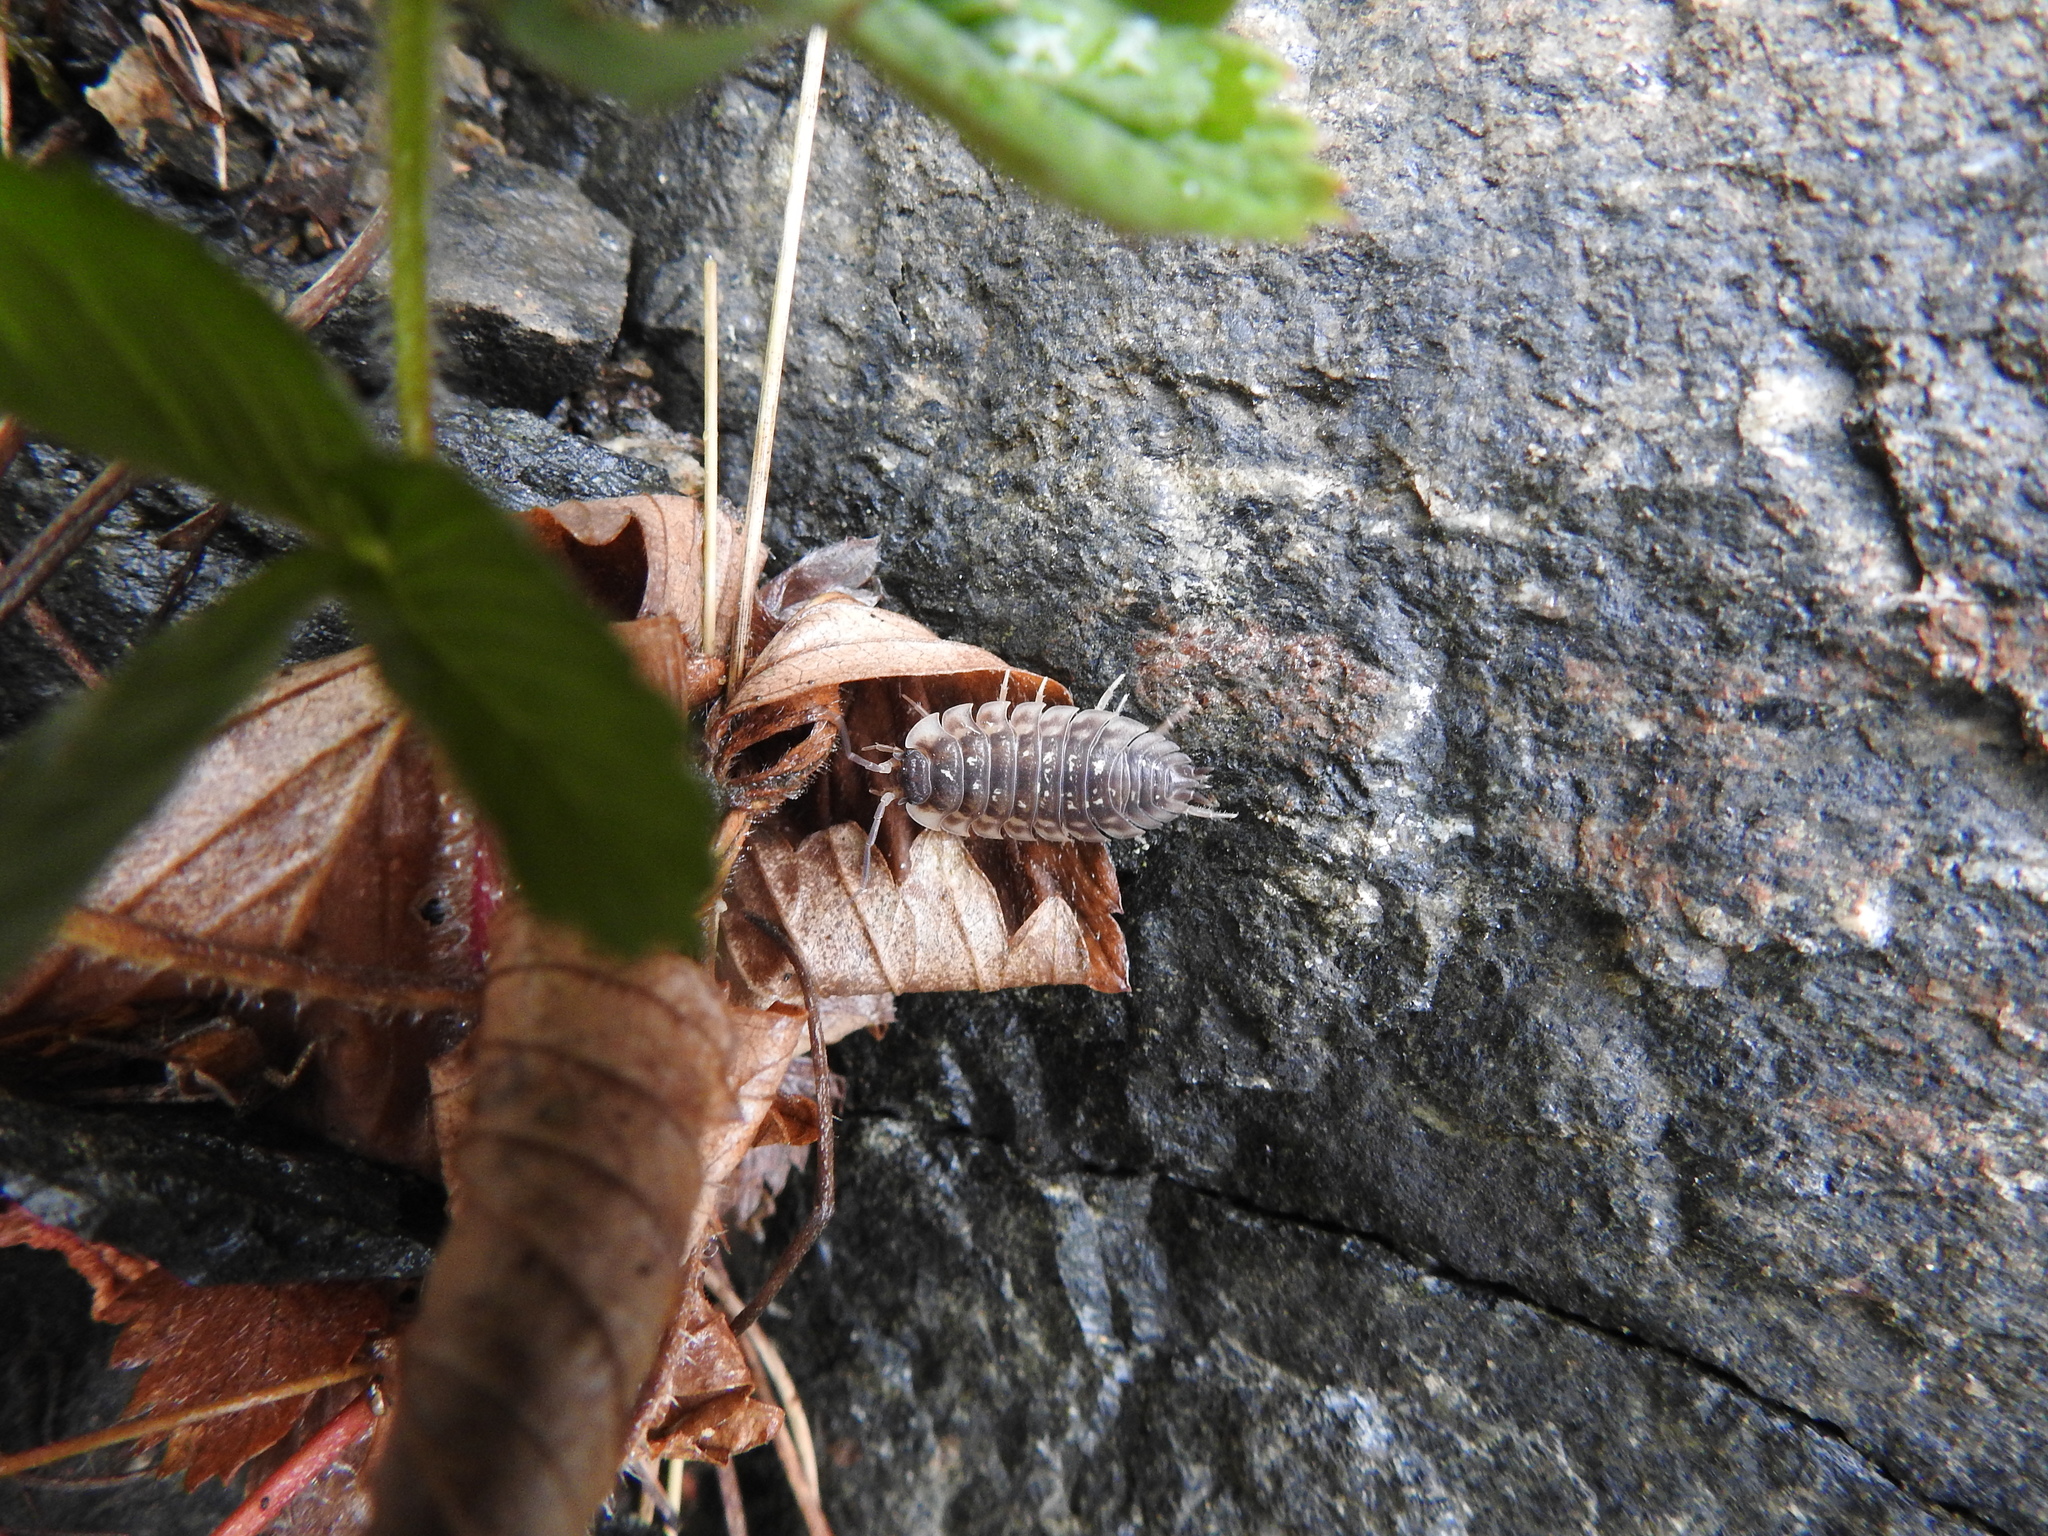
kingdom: Animalia
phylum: Arthropoda
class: Malacostraca
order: Isopoda
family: Oniscidae
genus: Oniscus
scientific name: Oniscus asellus
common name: Common shiny woodlouse
